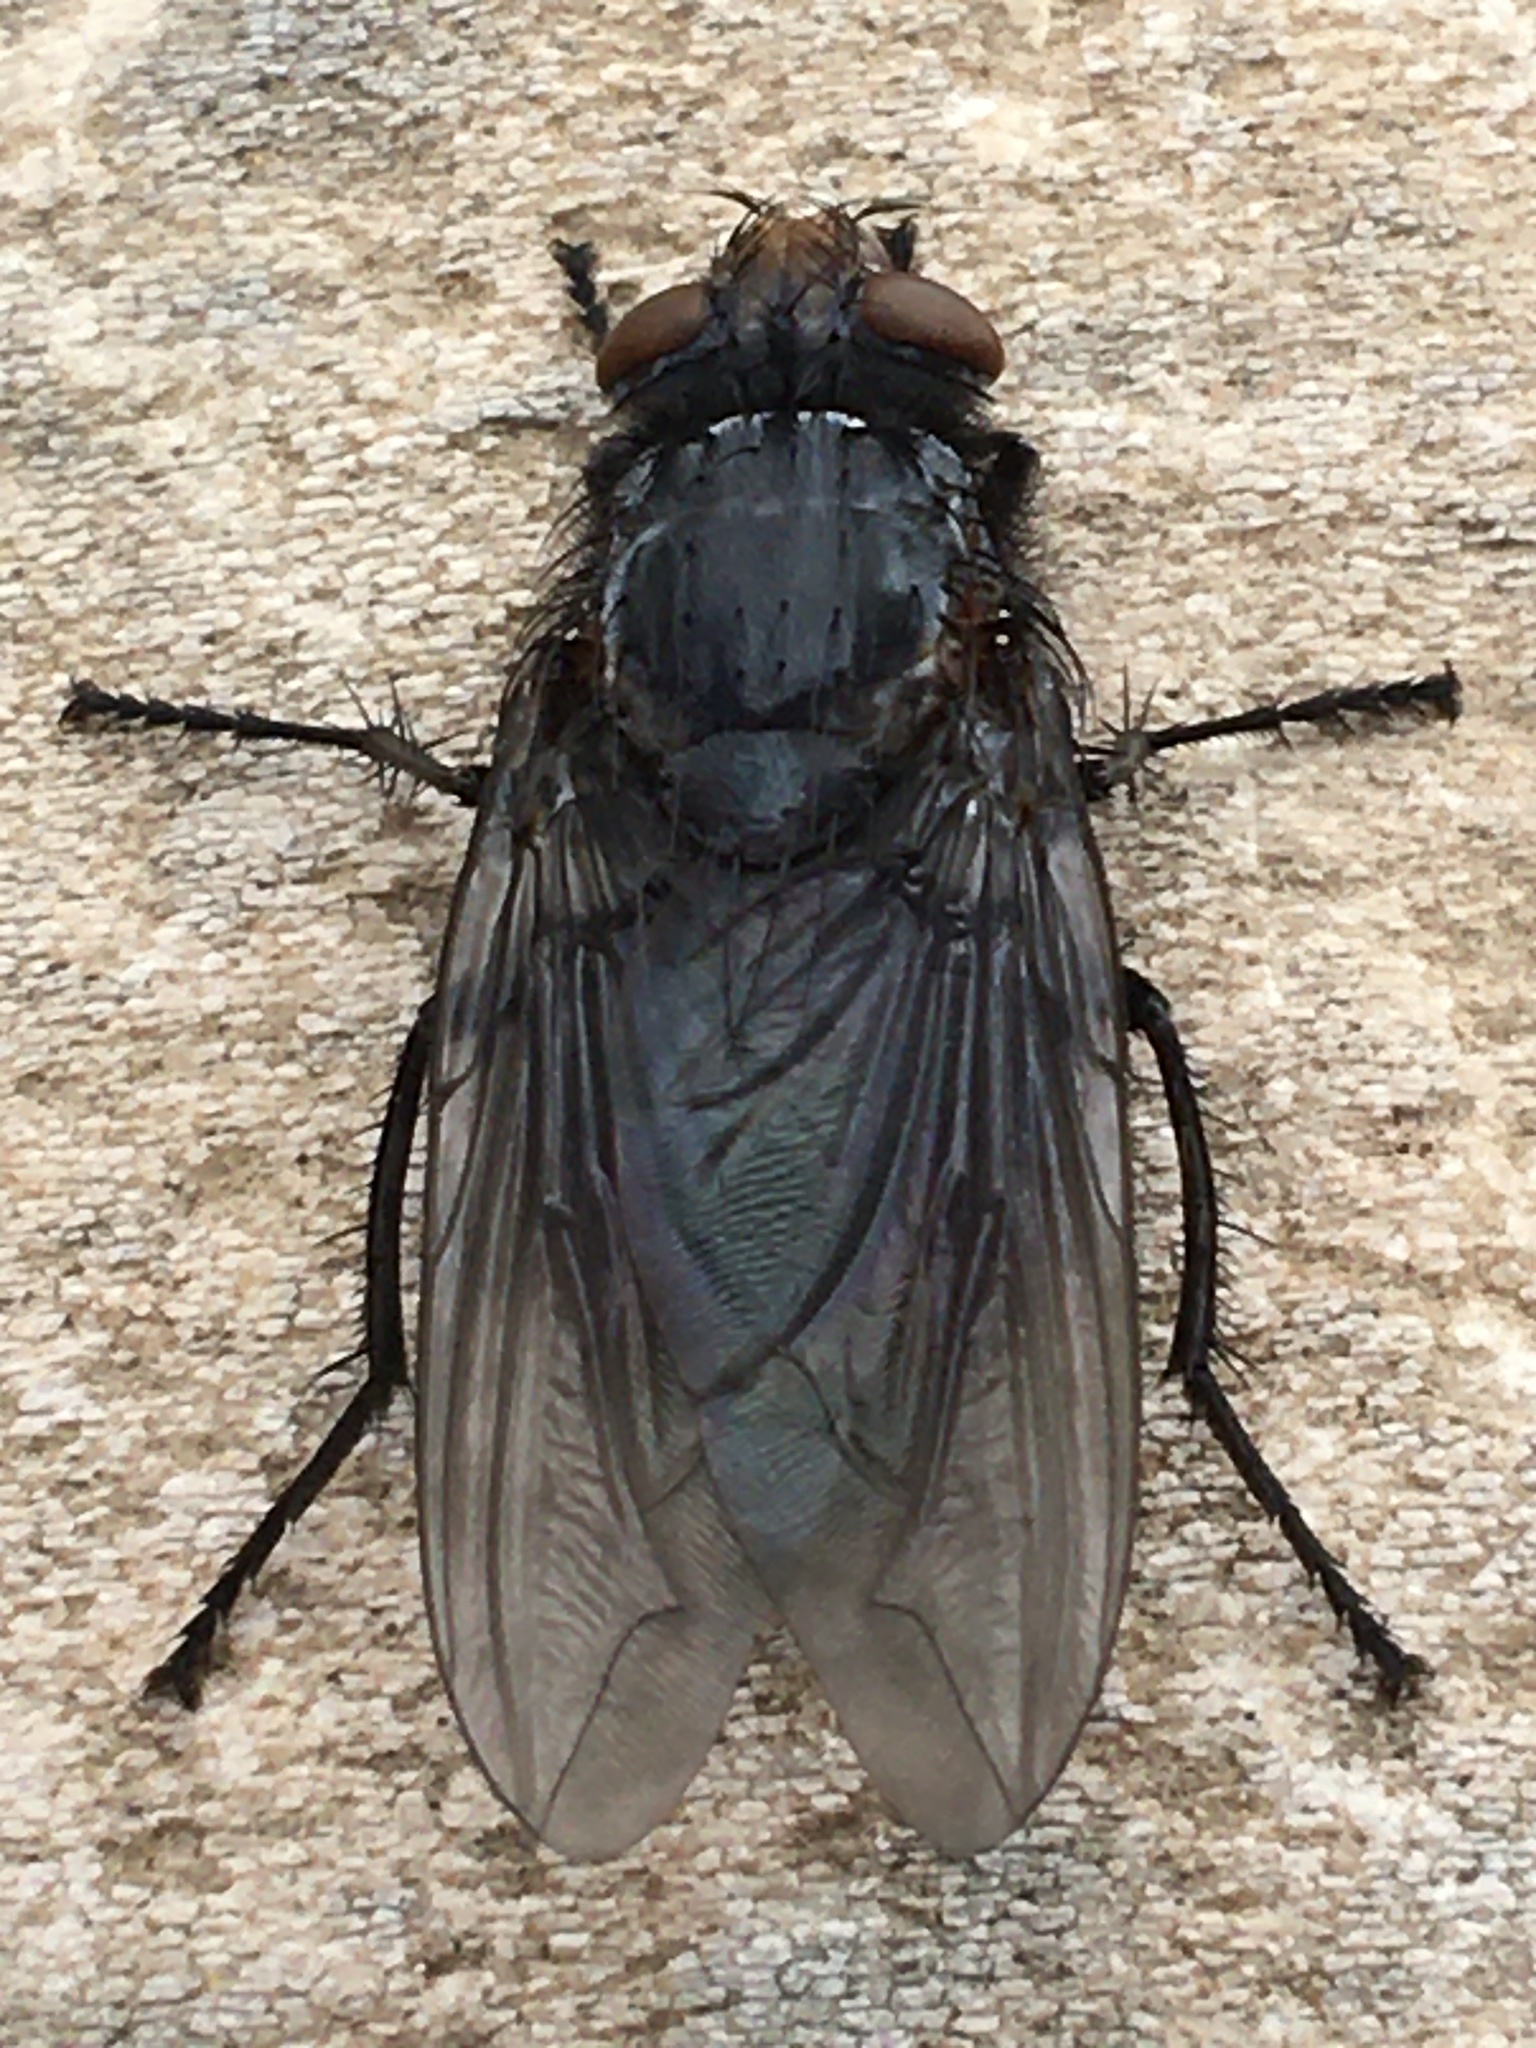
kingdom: Animalia
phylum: Arthropoda
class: Insecta
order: Diptera
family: Calliphoridae
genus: Cynomya
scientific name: Cynomya cadaverina
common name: Shiny blue bottle fly
